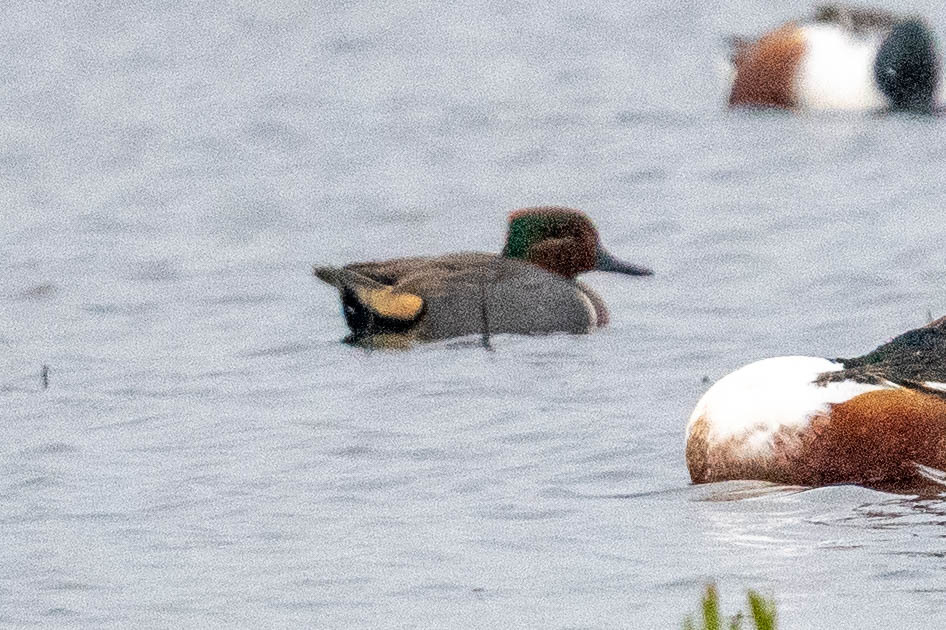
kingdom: Animalia
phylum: Chordata
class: Aves
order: Anseriformes
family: Anatidae
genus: Anas
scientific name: Anas crecca
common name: Eurasian teal
